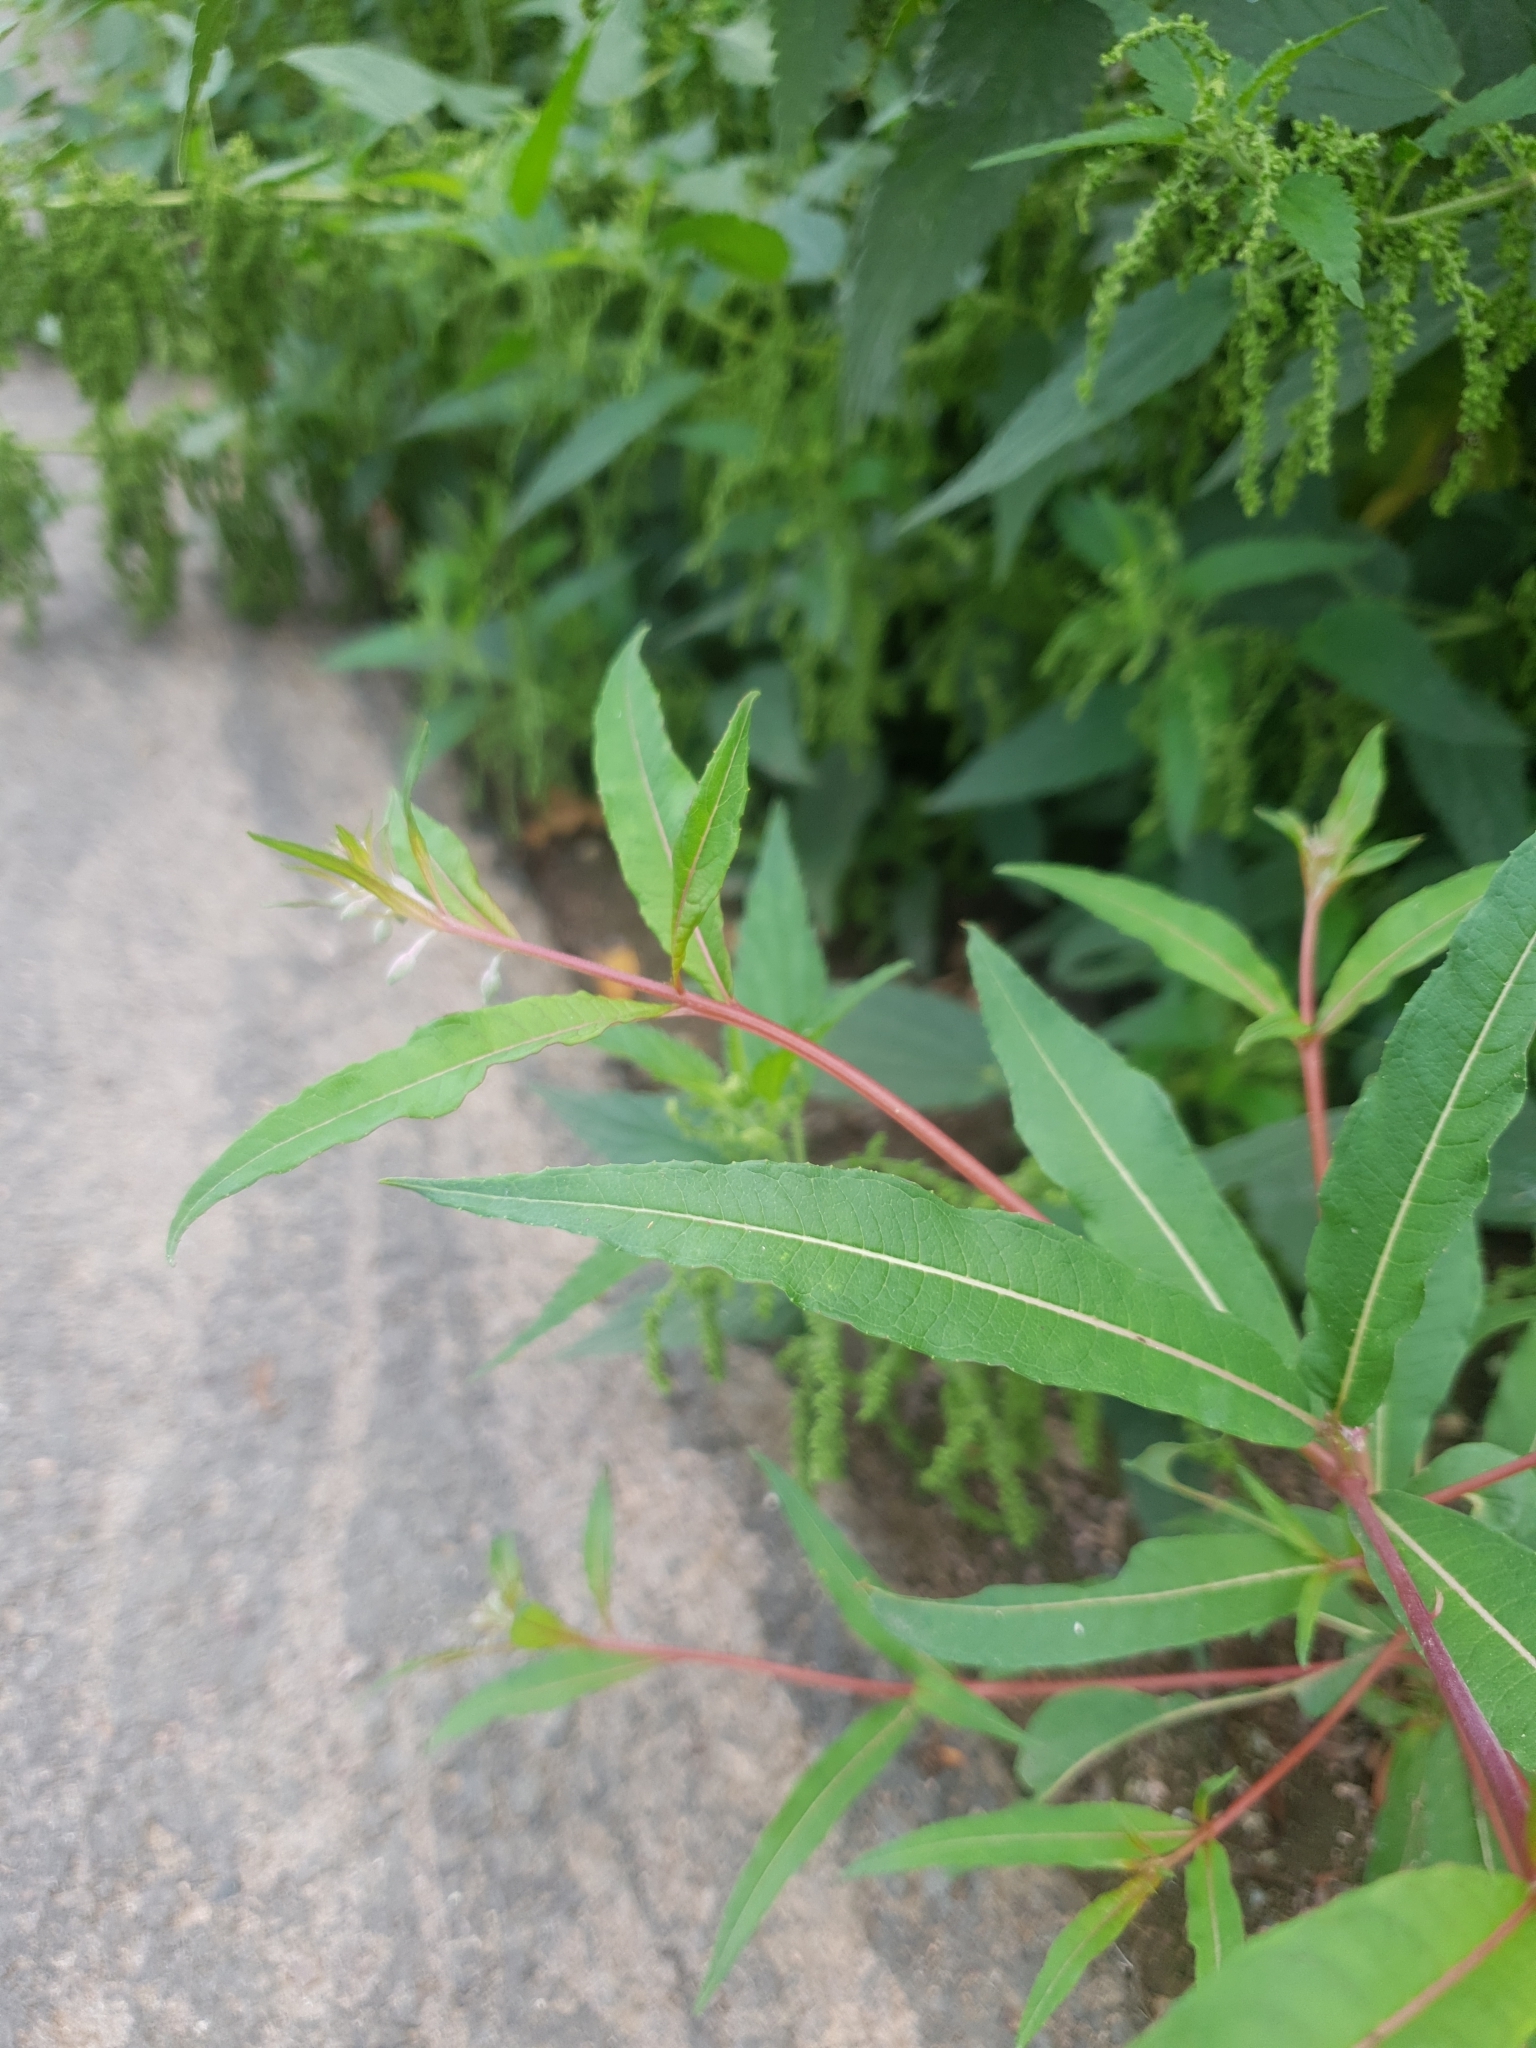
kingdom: Plantae
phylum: Tracheophyta
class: Magnoliopsida
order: Myrtales
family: Onagraceae
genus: Chamaenerion
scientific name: Chamaenerion angustifolium
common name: Fireweed
